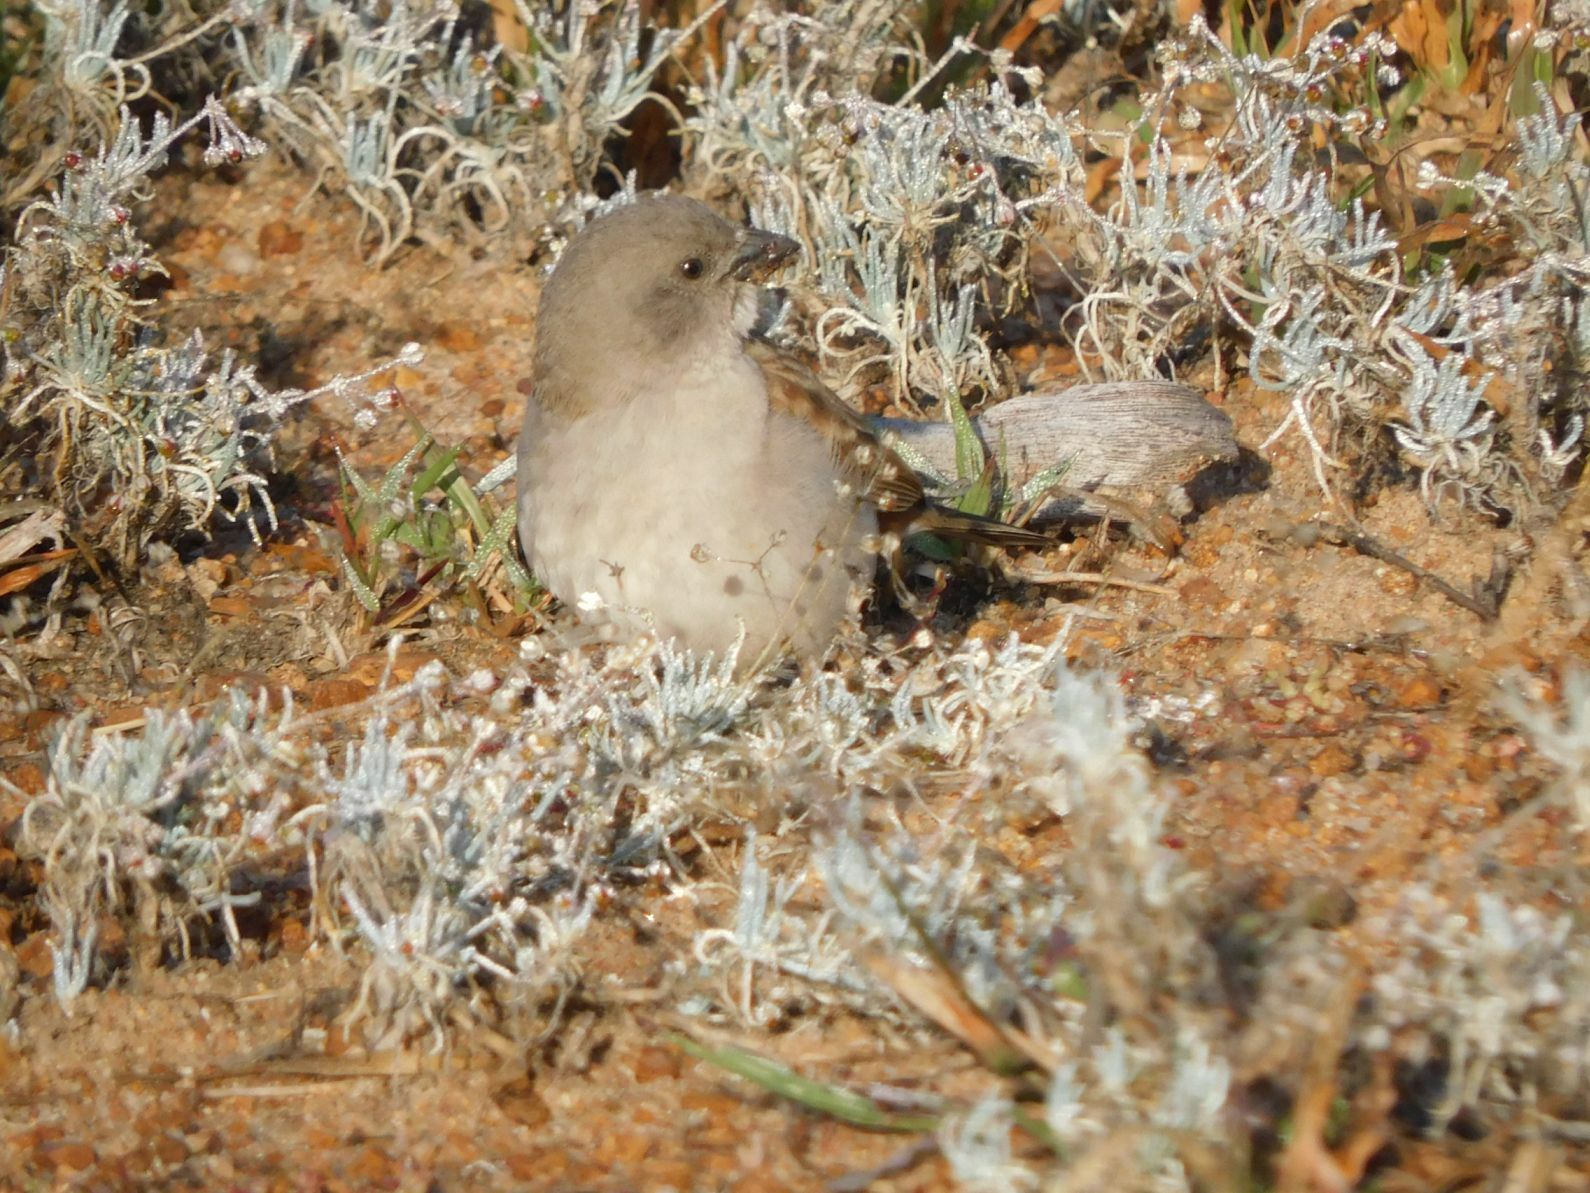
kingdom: Animalia
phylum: Chordata
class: Aves
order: Passeriformes
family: Passeridae
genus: Passer
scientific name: Passer diffusus
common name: Southern grey-headed sparrow
